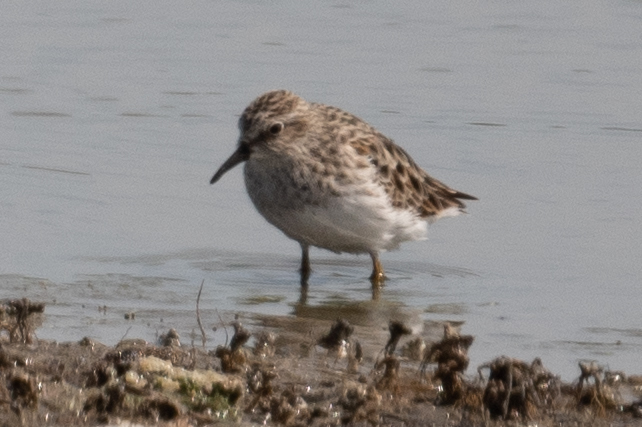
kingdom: Animalia
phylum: Chordata
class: Aves
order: Charadriiformes
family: Scolopacidae
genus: Calidris
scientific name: Calidris minutilla
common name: Least sandpiper
